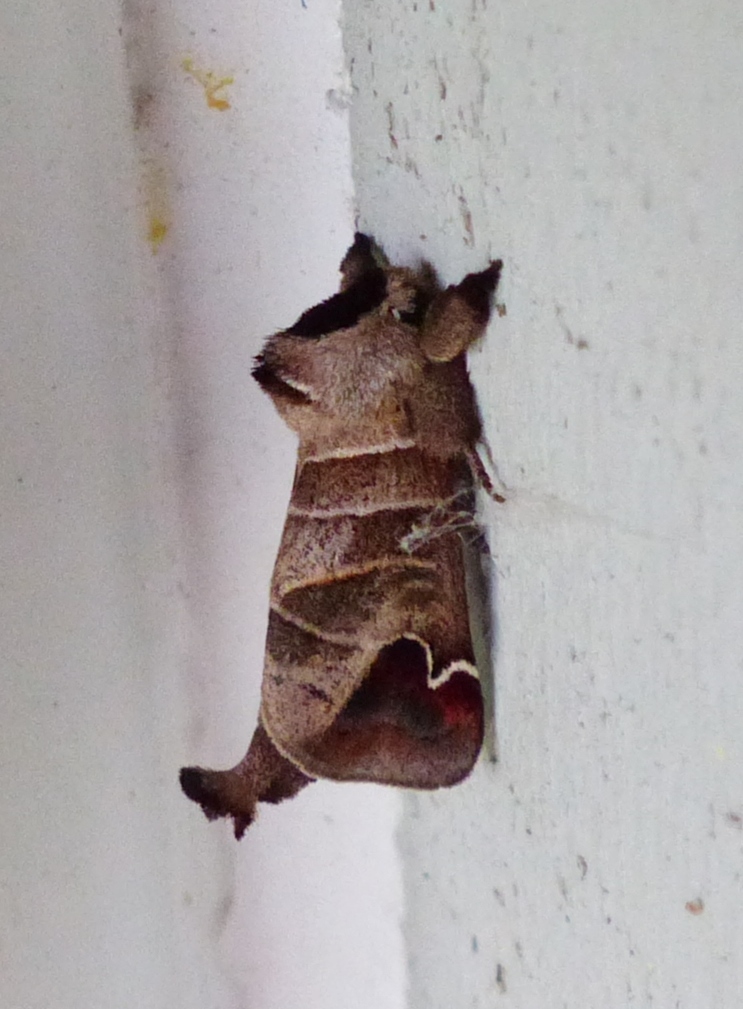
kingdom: Animalia
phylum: Arthropoda
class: Insecta
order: Lepidoptera
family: Notodontidae
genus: Clostera
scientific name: Clostera albosigma
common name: Sigmoid prominent
